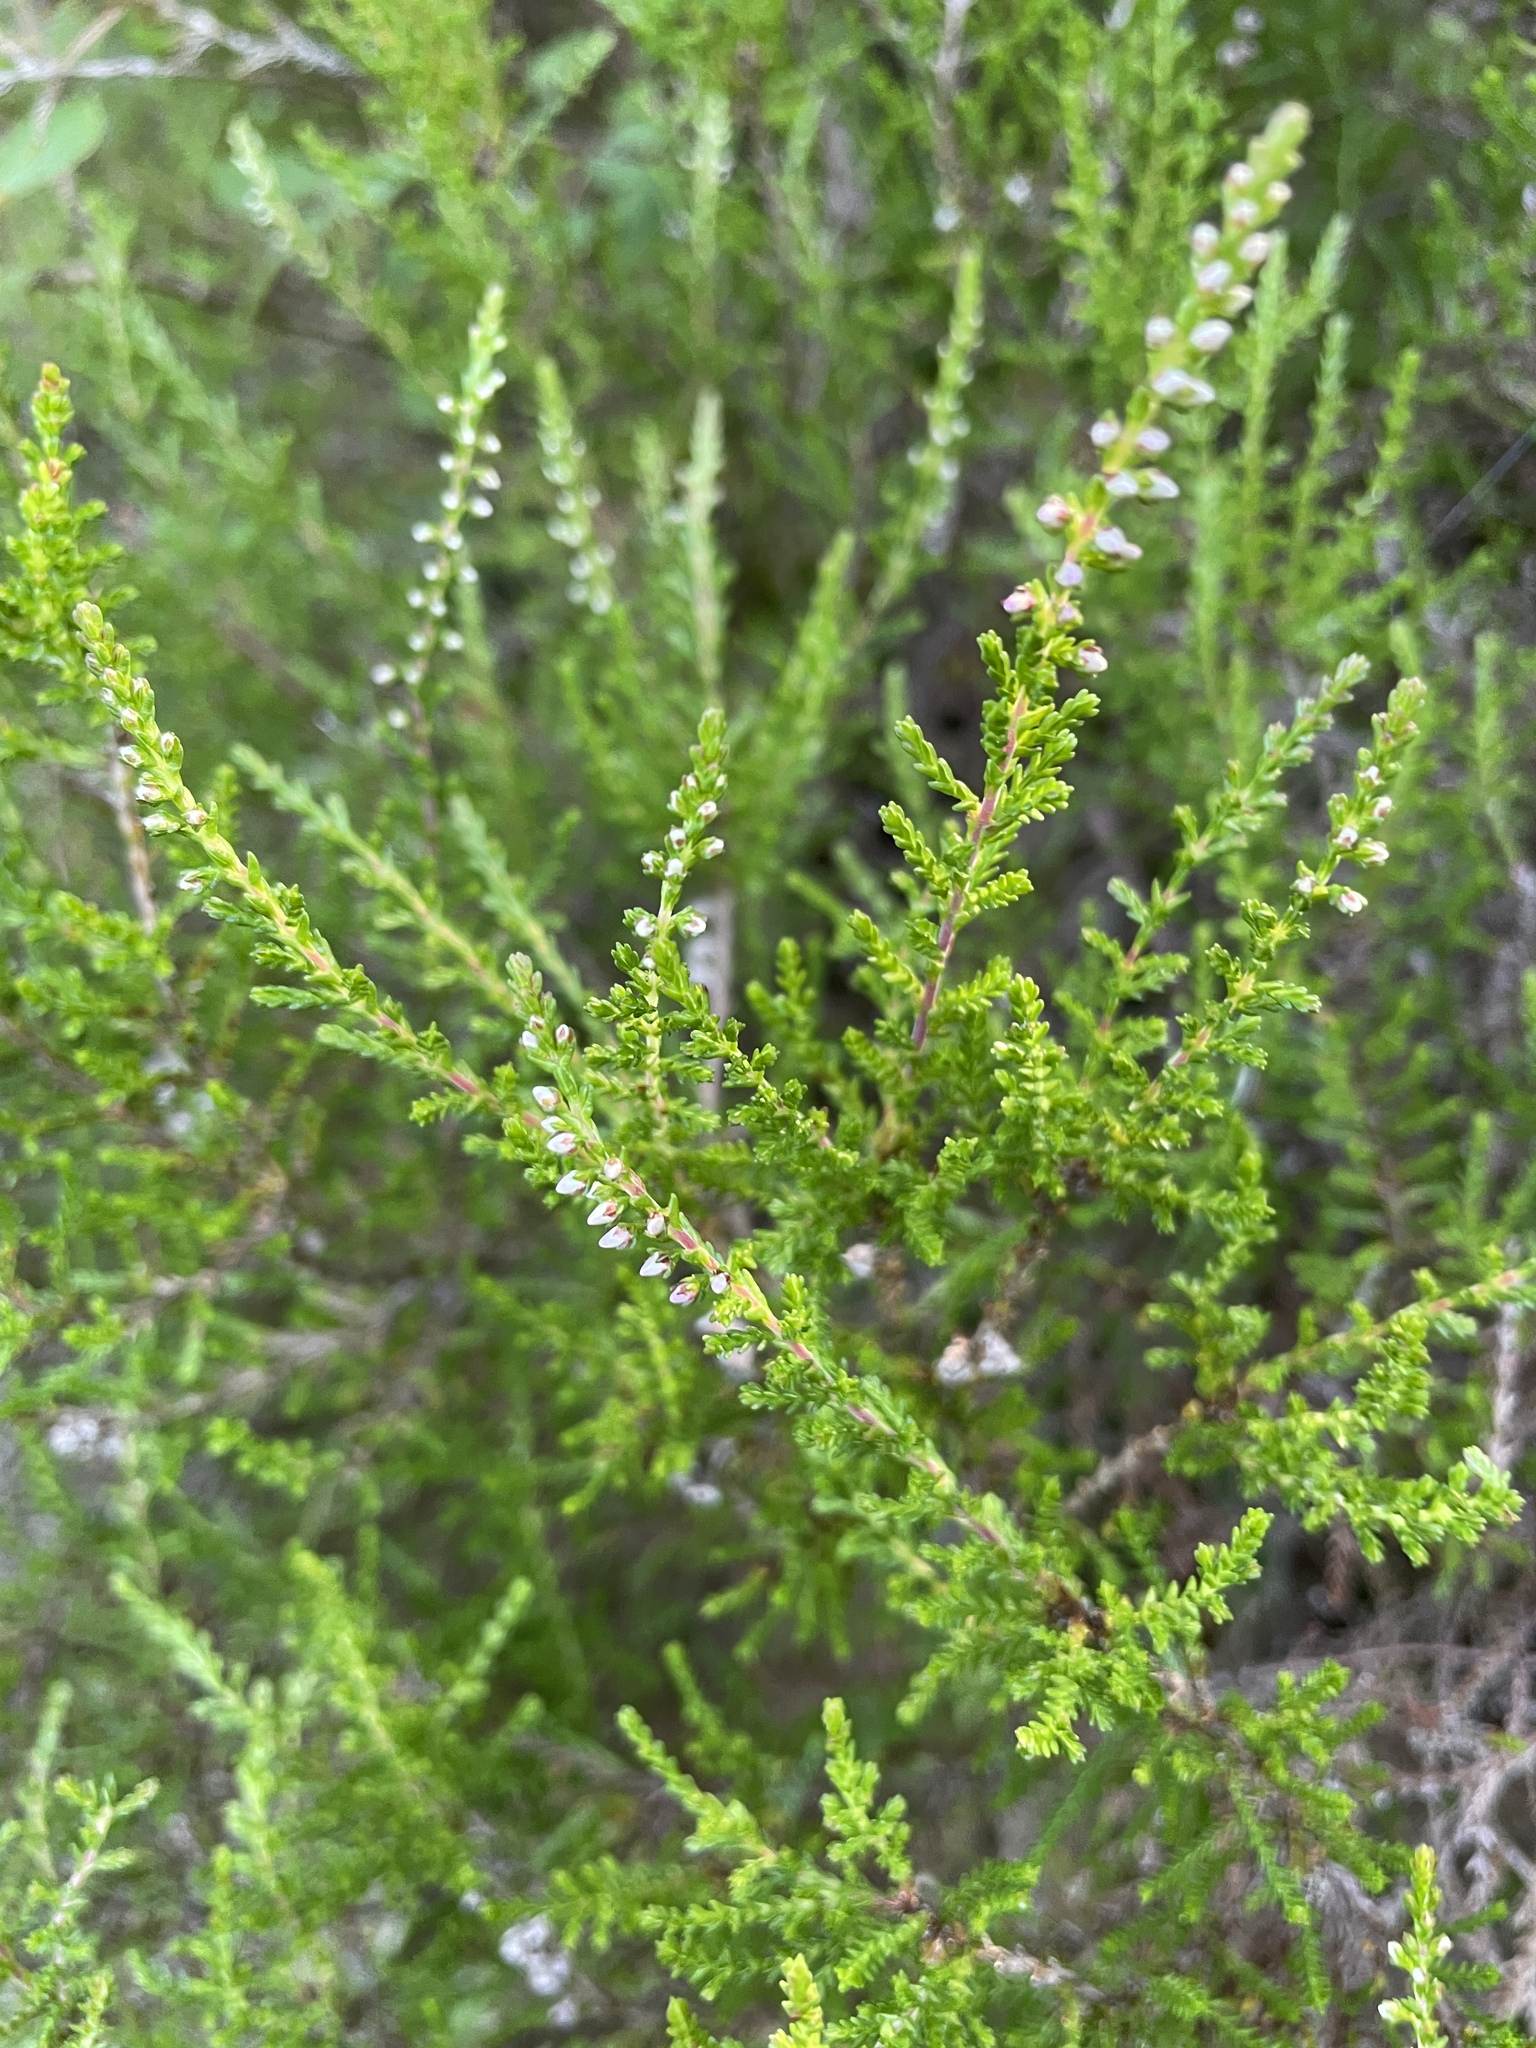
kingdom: Plantae
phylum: Tracheophyta
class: Magnoliopsida
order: Ericales
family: Ericaceae
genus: Calluna
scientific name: Calluna vulgaris
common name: Heather
